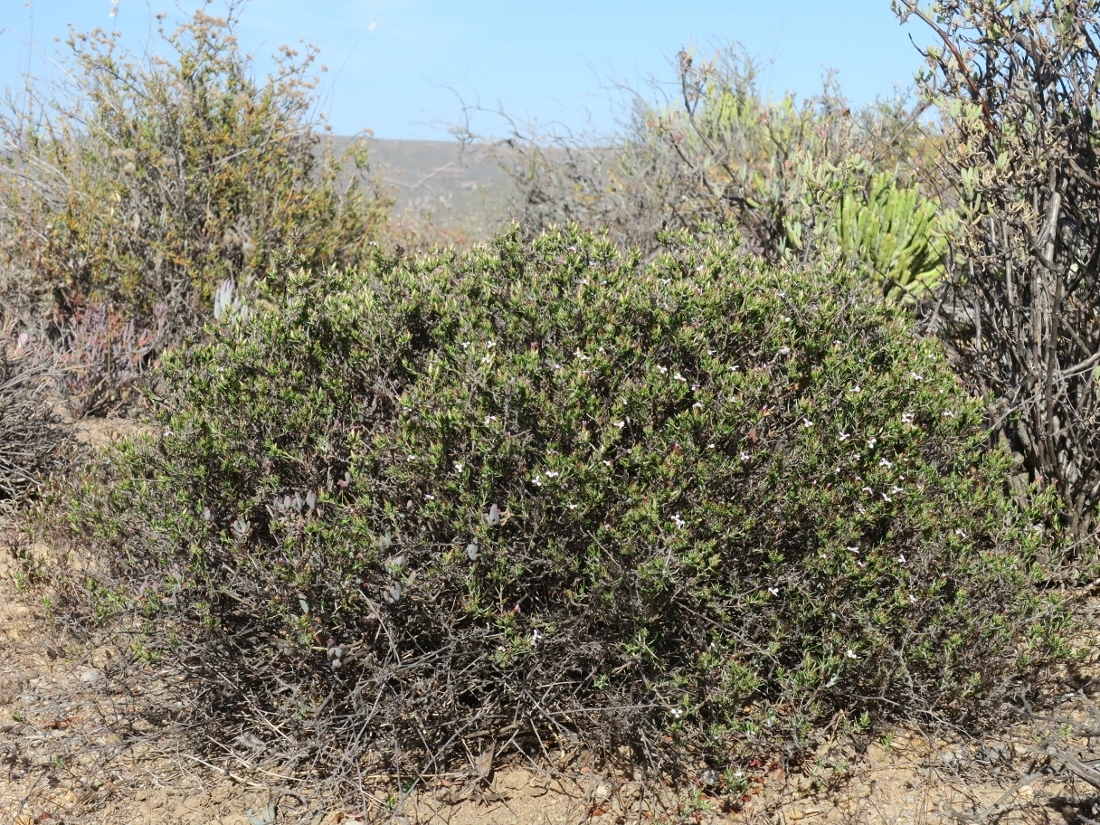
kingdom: Plantae
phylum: Tracheophyta
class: Magnoliopsida
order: Asterales
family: Asteraceae
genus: Amphiglossa
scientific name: Amphiglossa tomentosa
